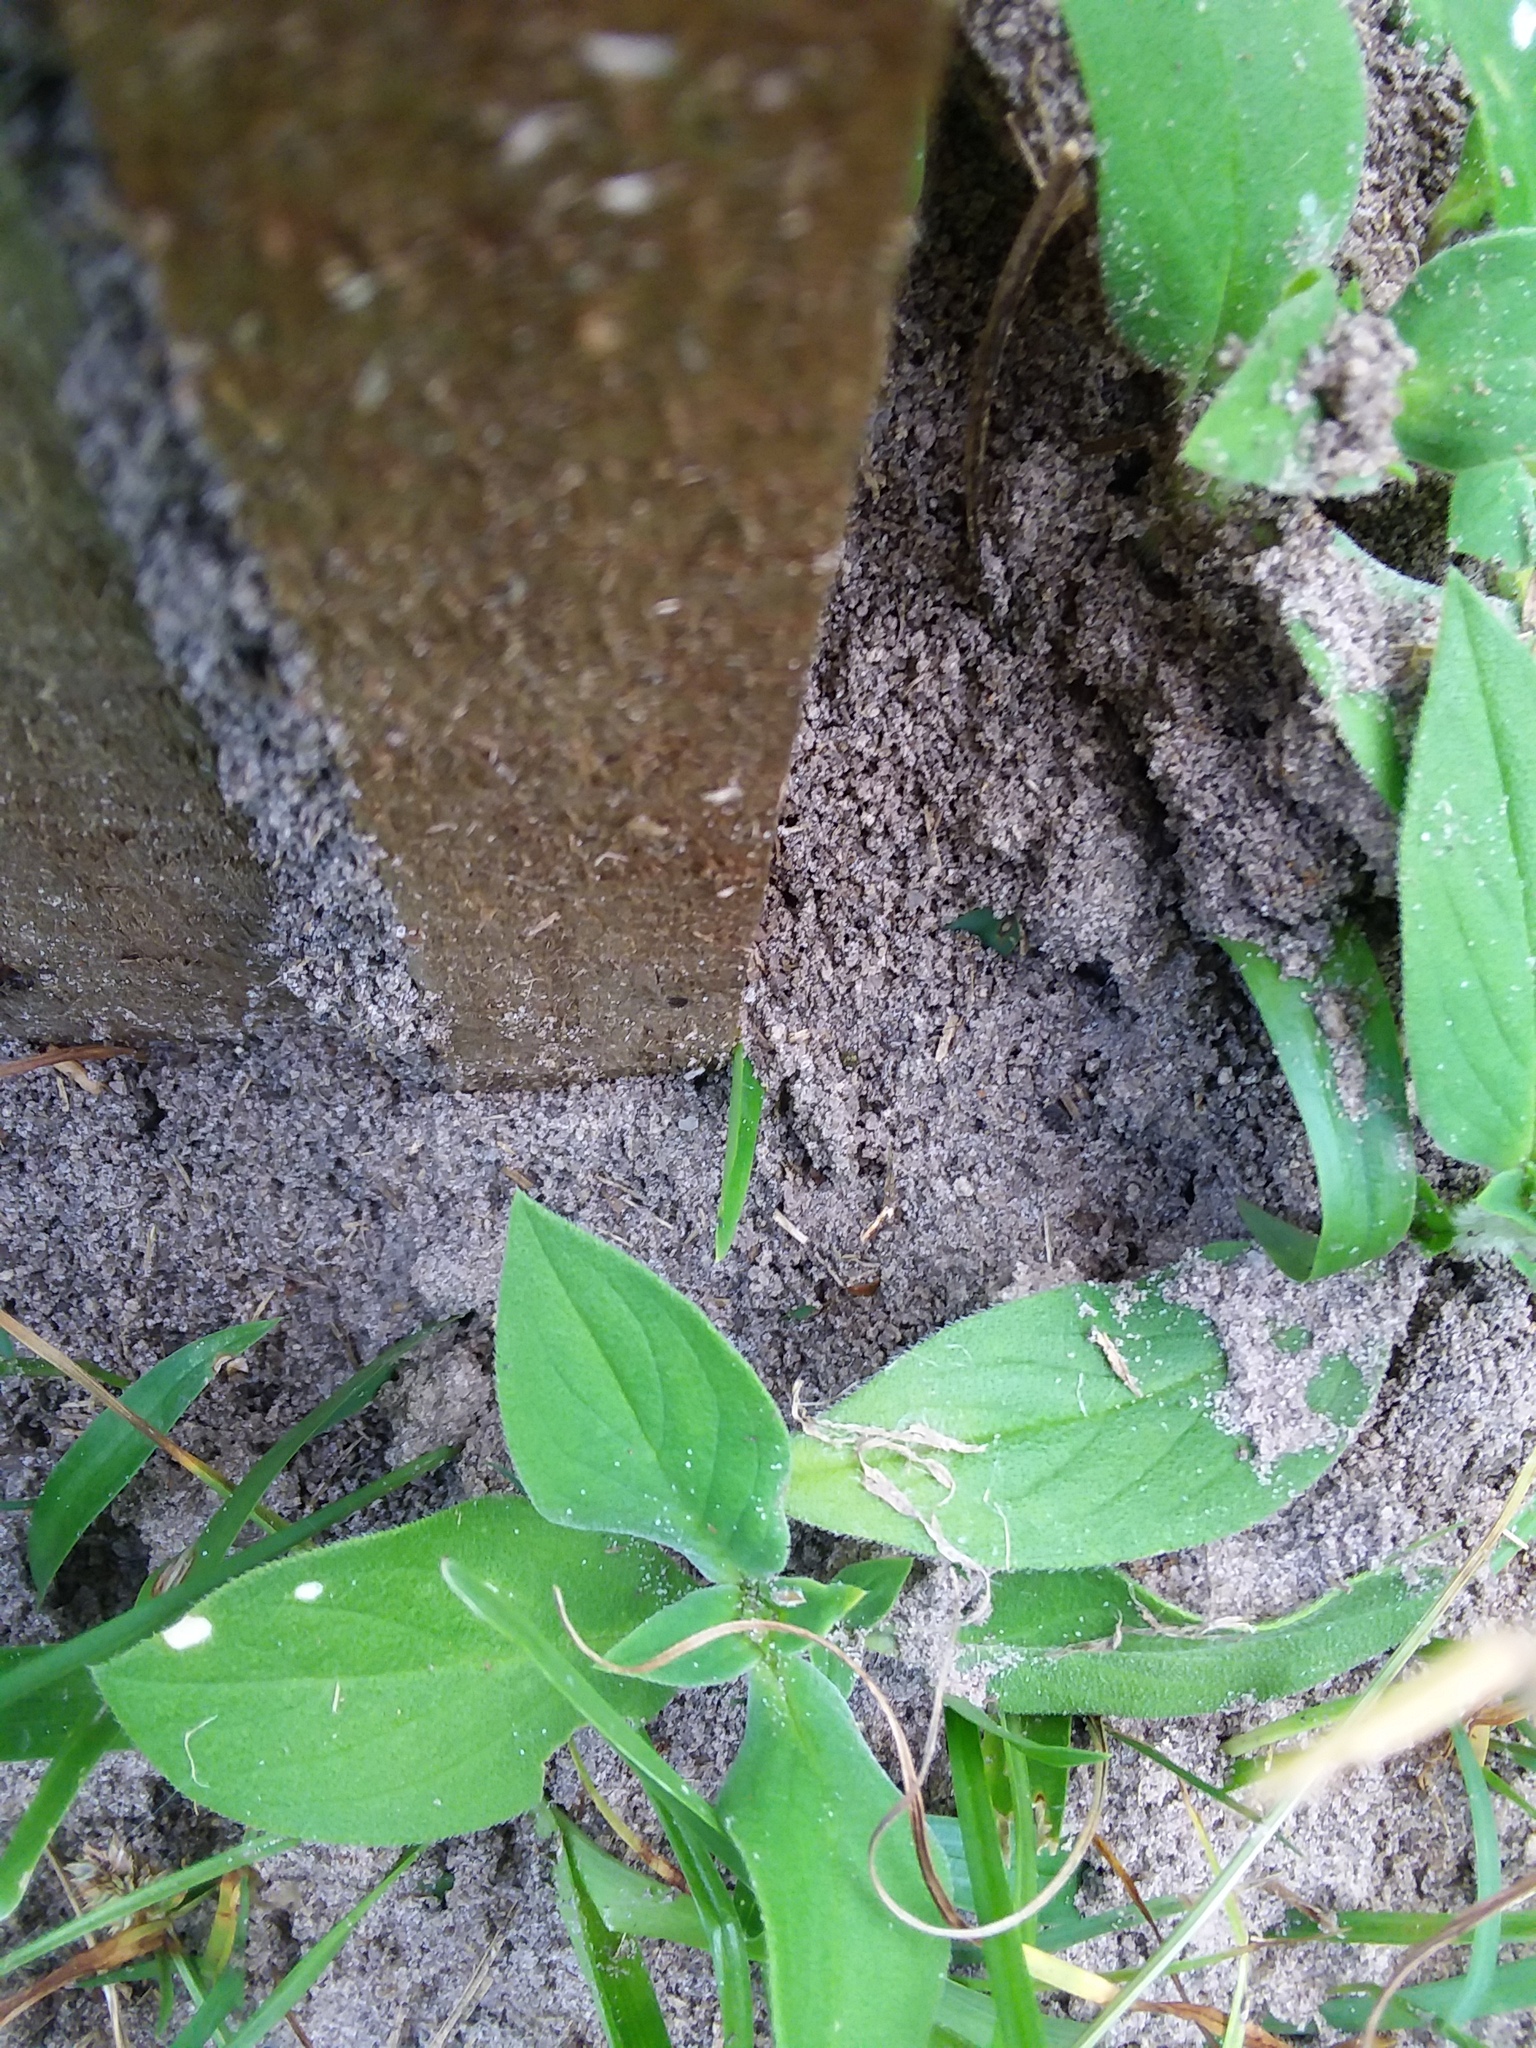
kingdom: Animalia
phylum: Arthropoda
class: Insecta
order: Hymenoptera
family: Formicidae
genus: Solenopsis
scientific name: Solenopsis invicta
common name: Red imported fire ant
